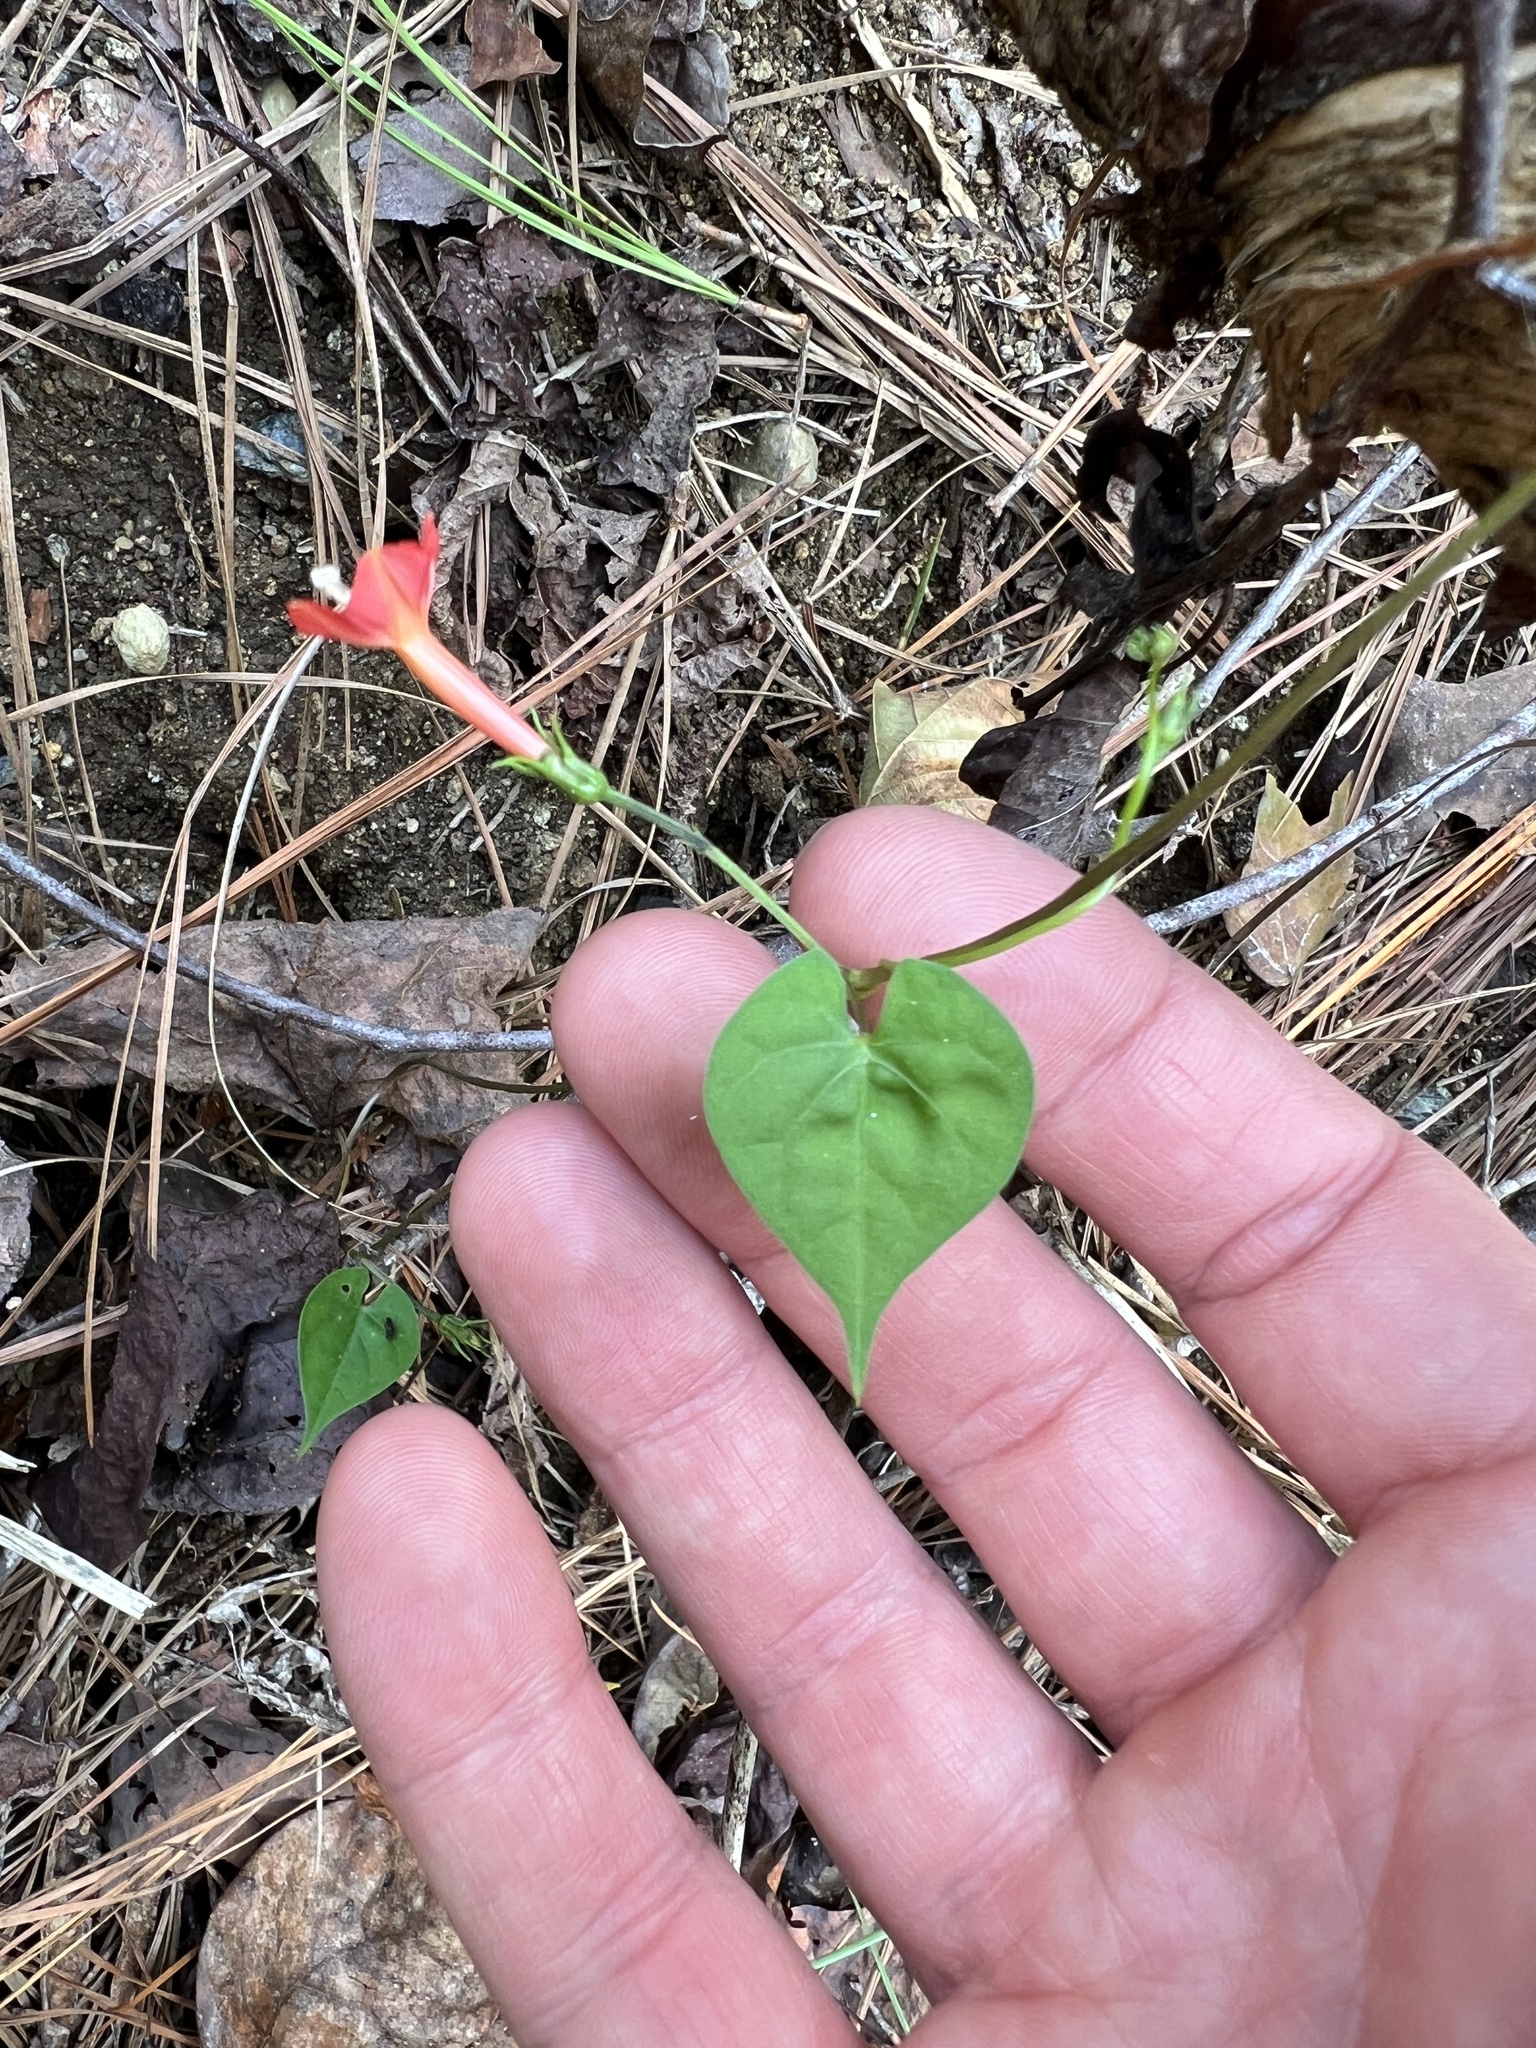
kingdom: Plantae
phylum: Tracheophyta
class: Magnoliopsida
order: Solanales
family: Convolvulaceae
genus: Ipomoea
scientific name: Ipomoea coccinea
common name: Red morning-glory
